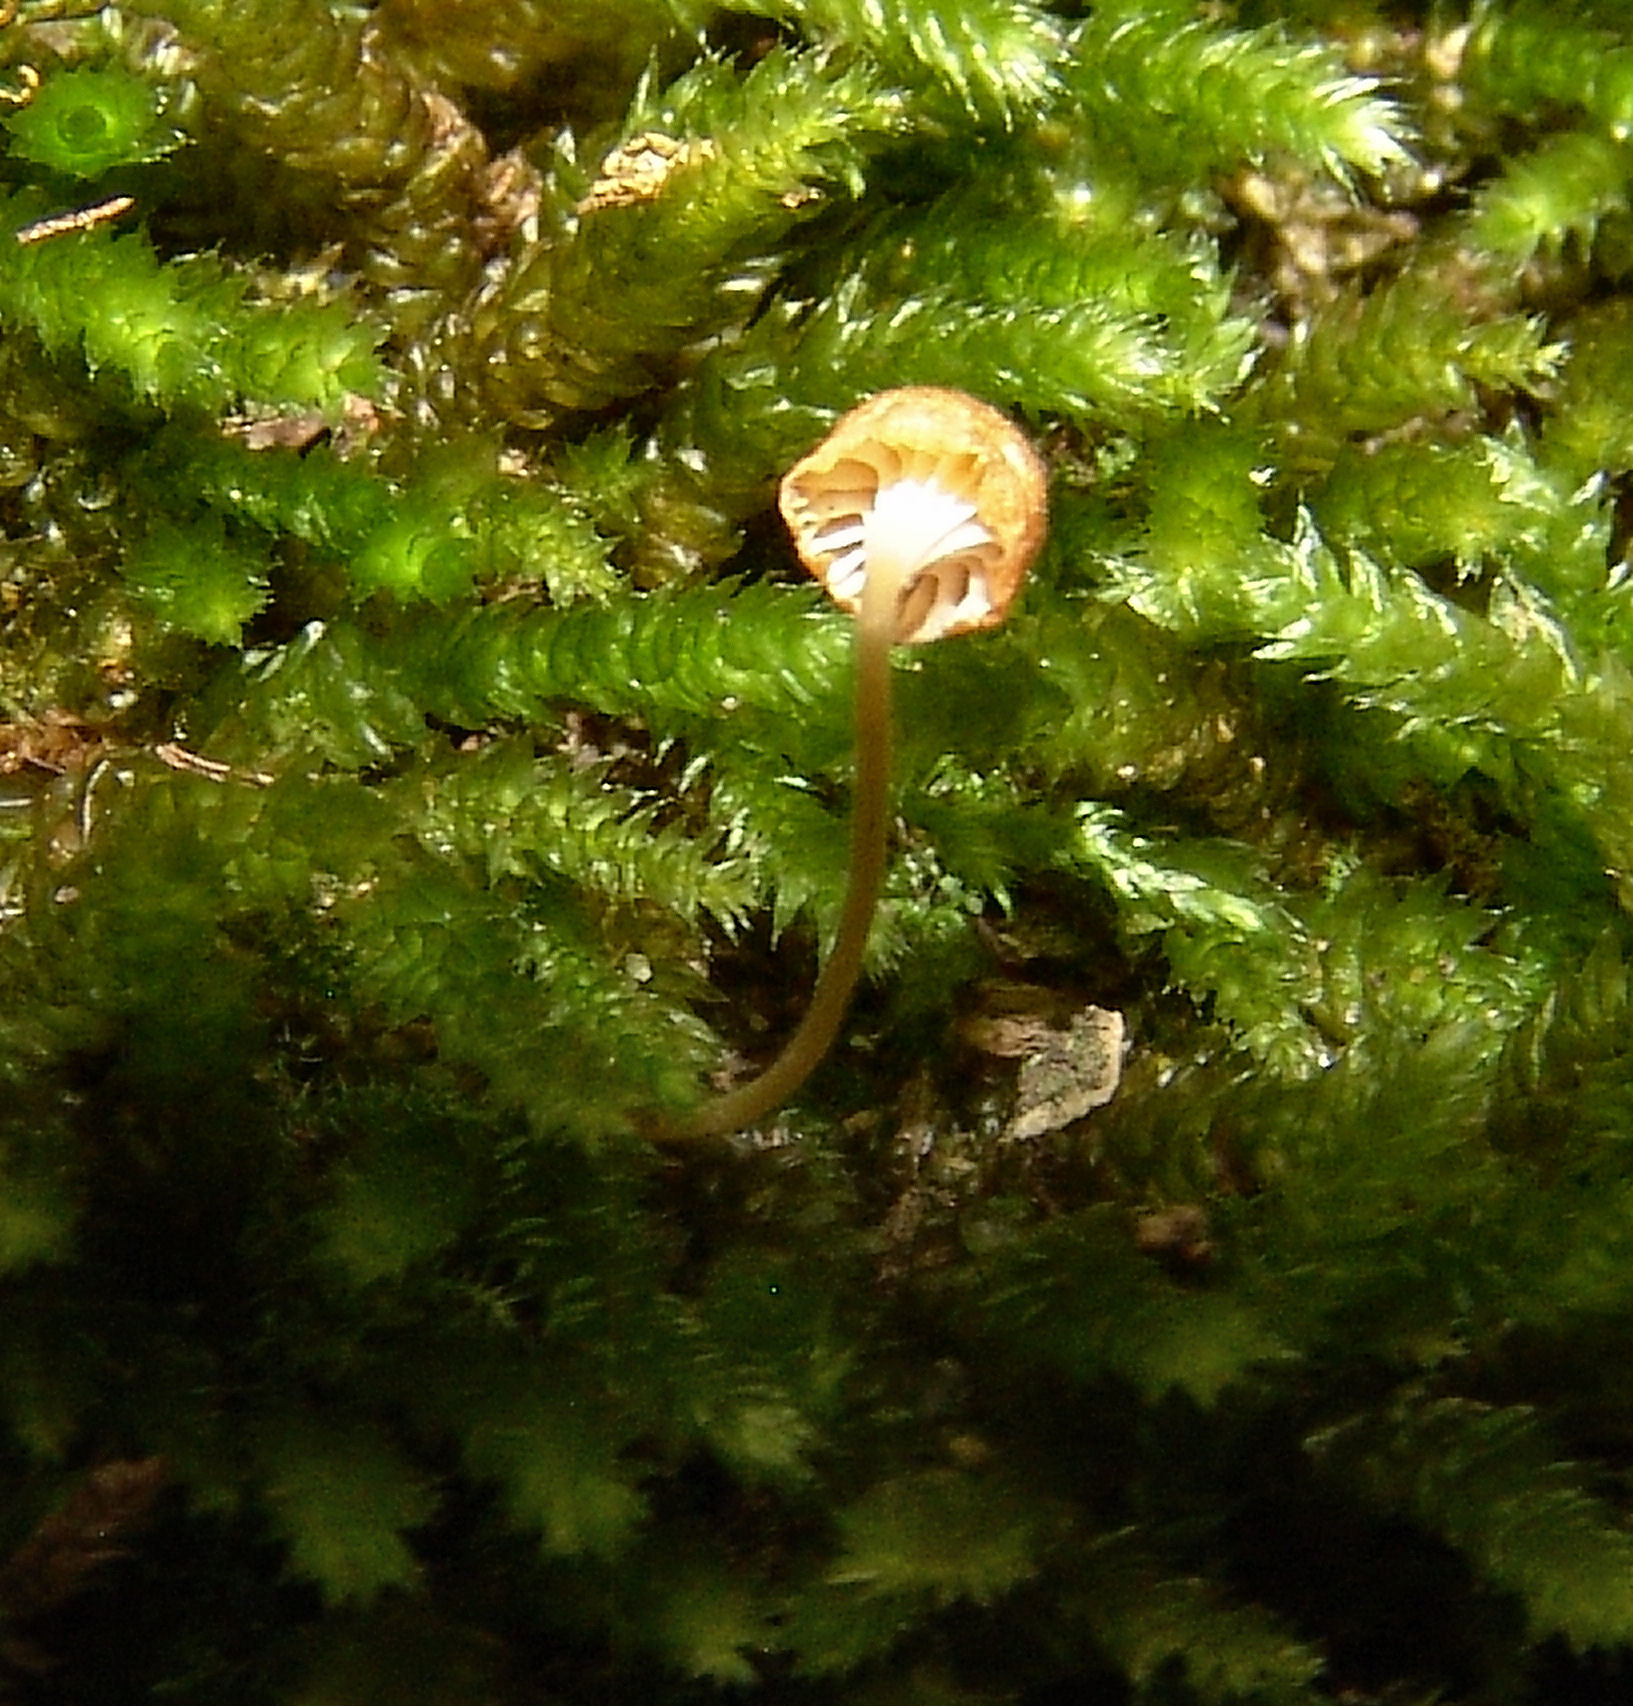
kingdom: Fungi
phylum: Basidiomycota
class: Agaricomycetes
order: Hymenochaetales
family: Rickenellaceae
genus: Rickenella
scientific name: Rickenella fibula
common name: Orange mosscap
